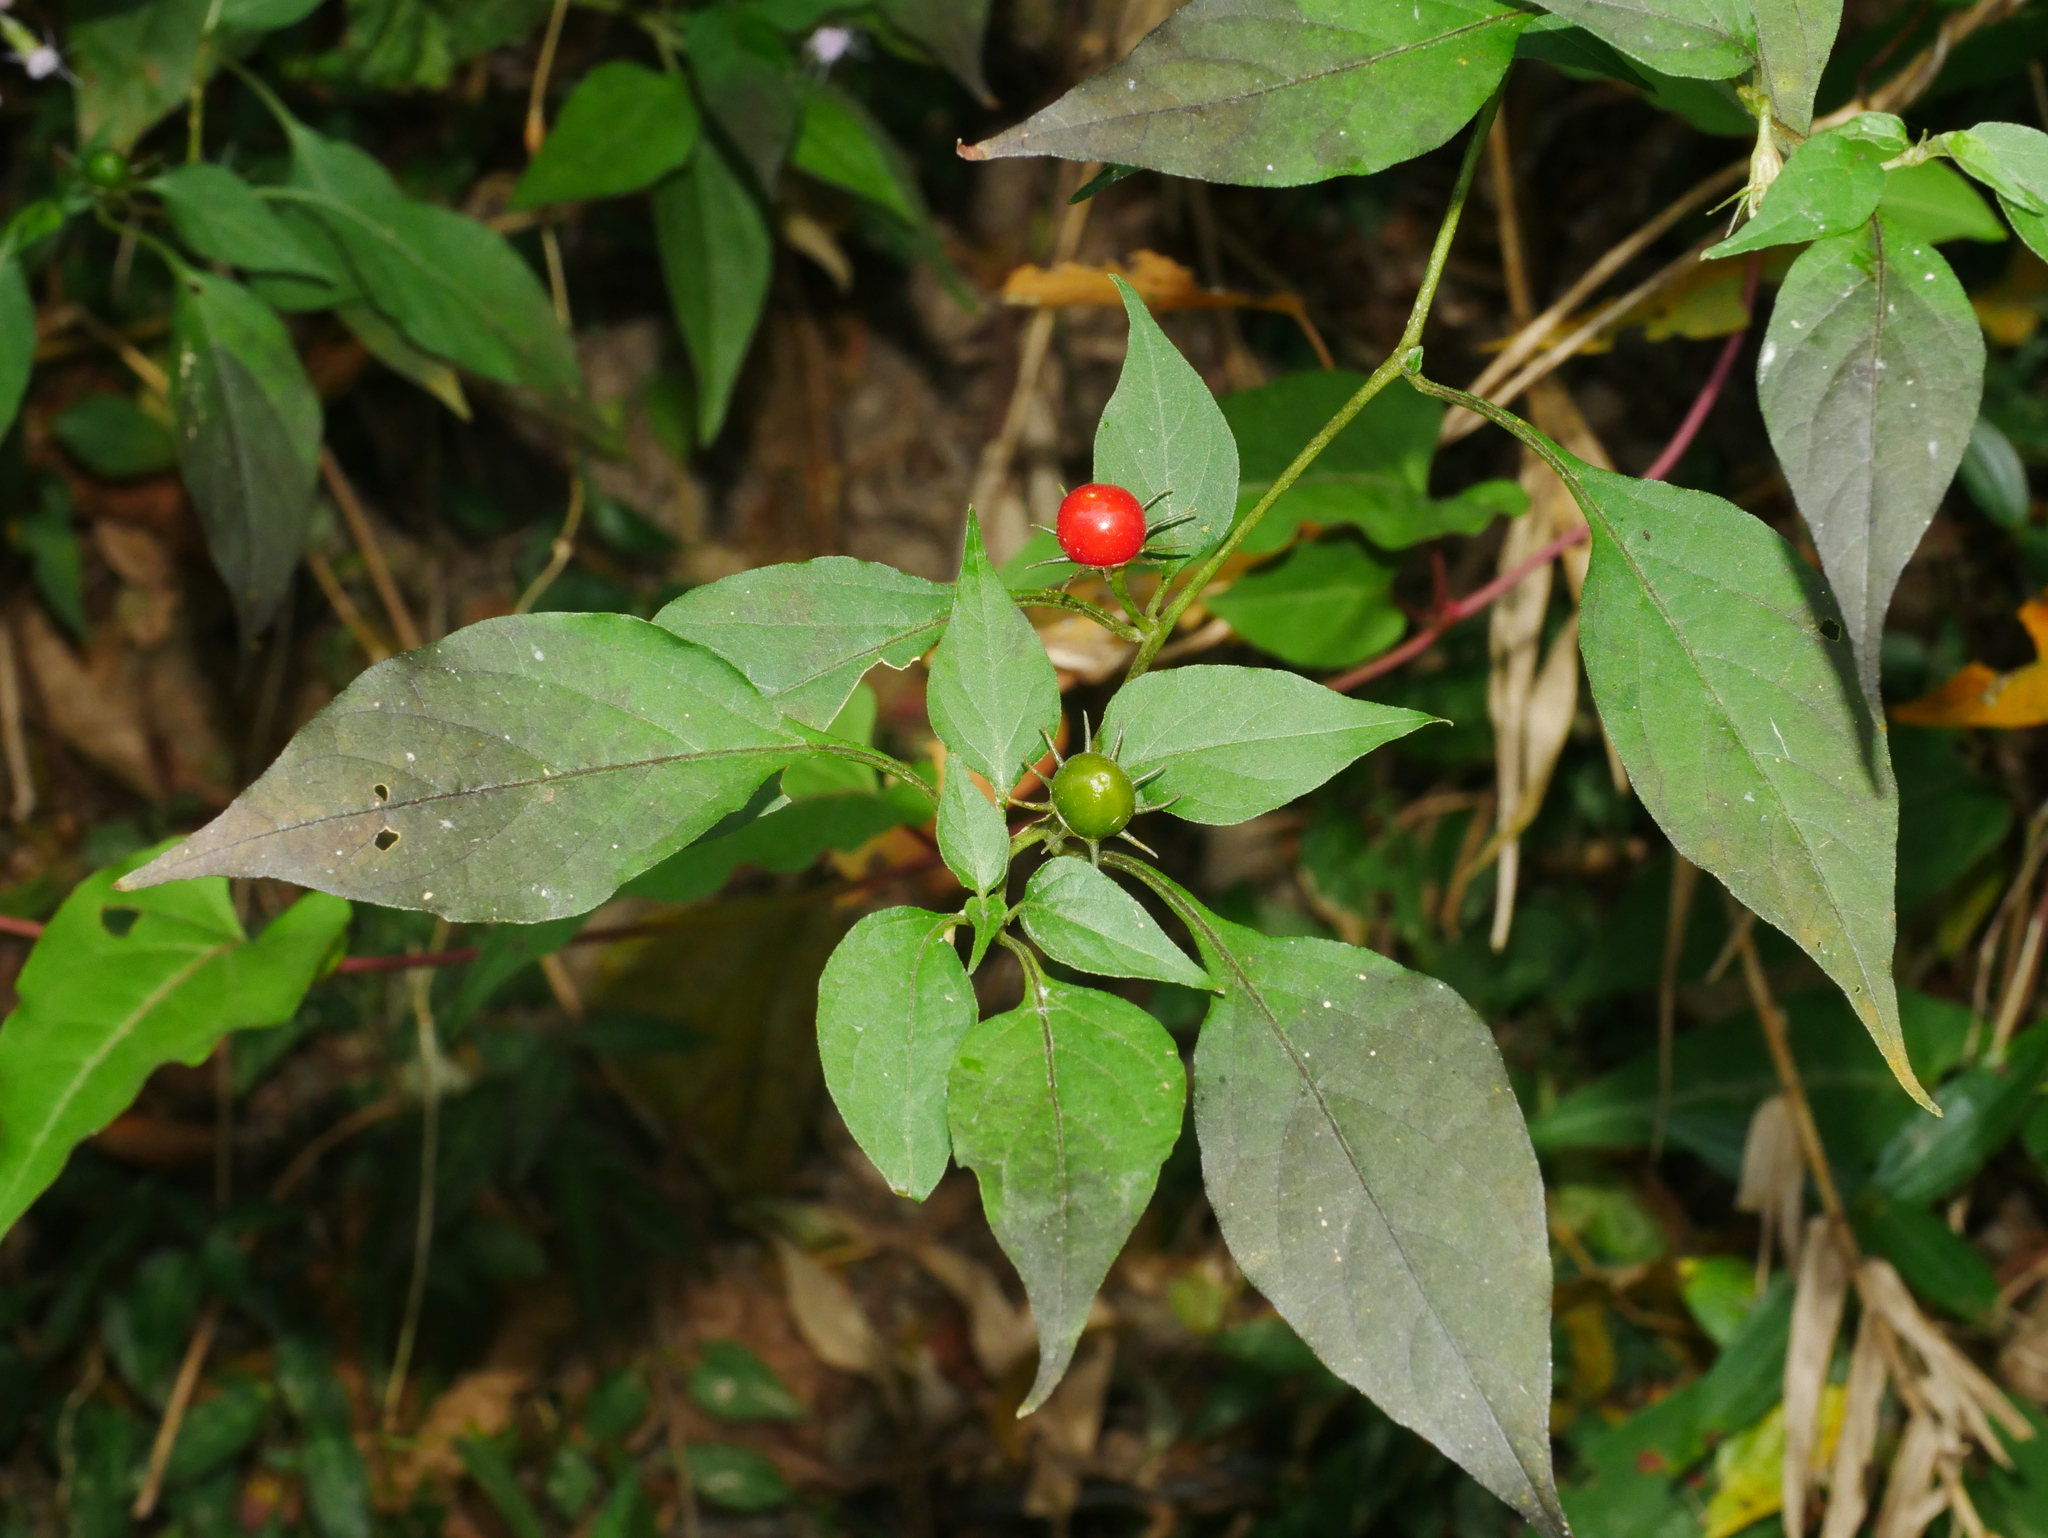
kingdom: Plantae
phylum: Tracheophyta
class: Magnoliopsida
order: Solanales
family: Solanaceae
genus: Lycianthes
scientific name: Lycianthes biflora
